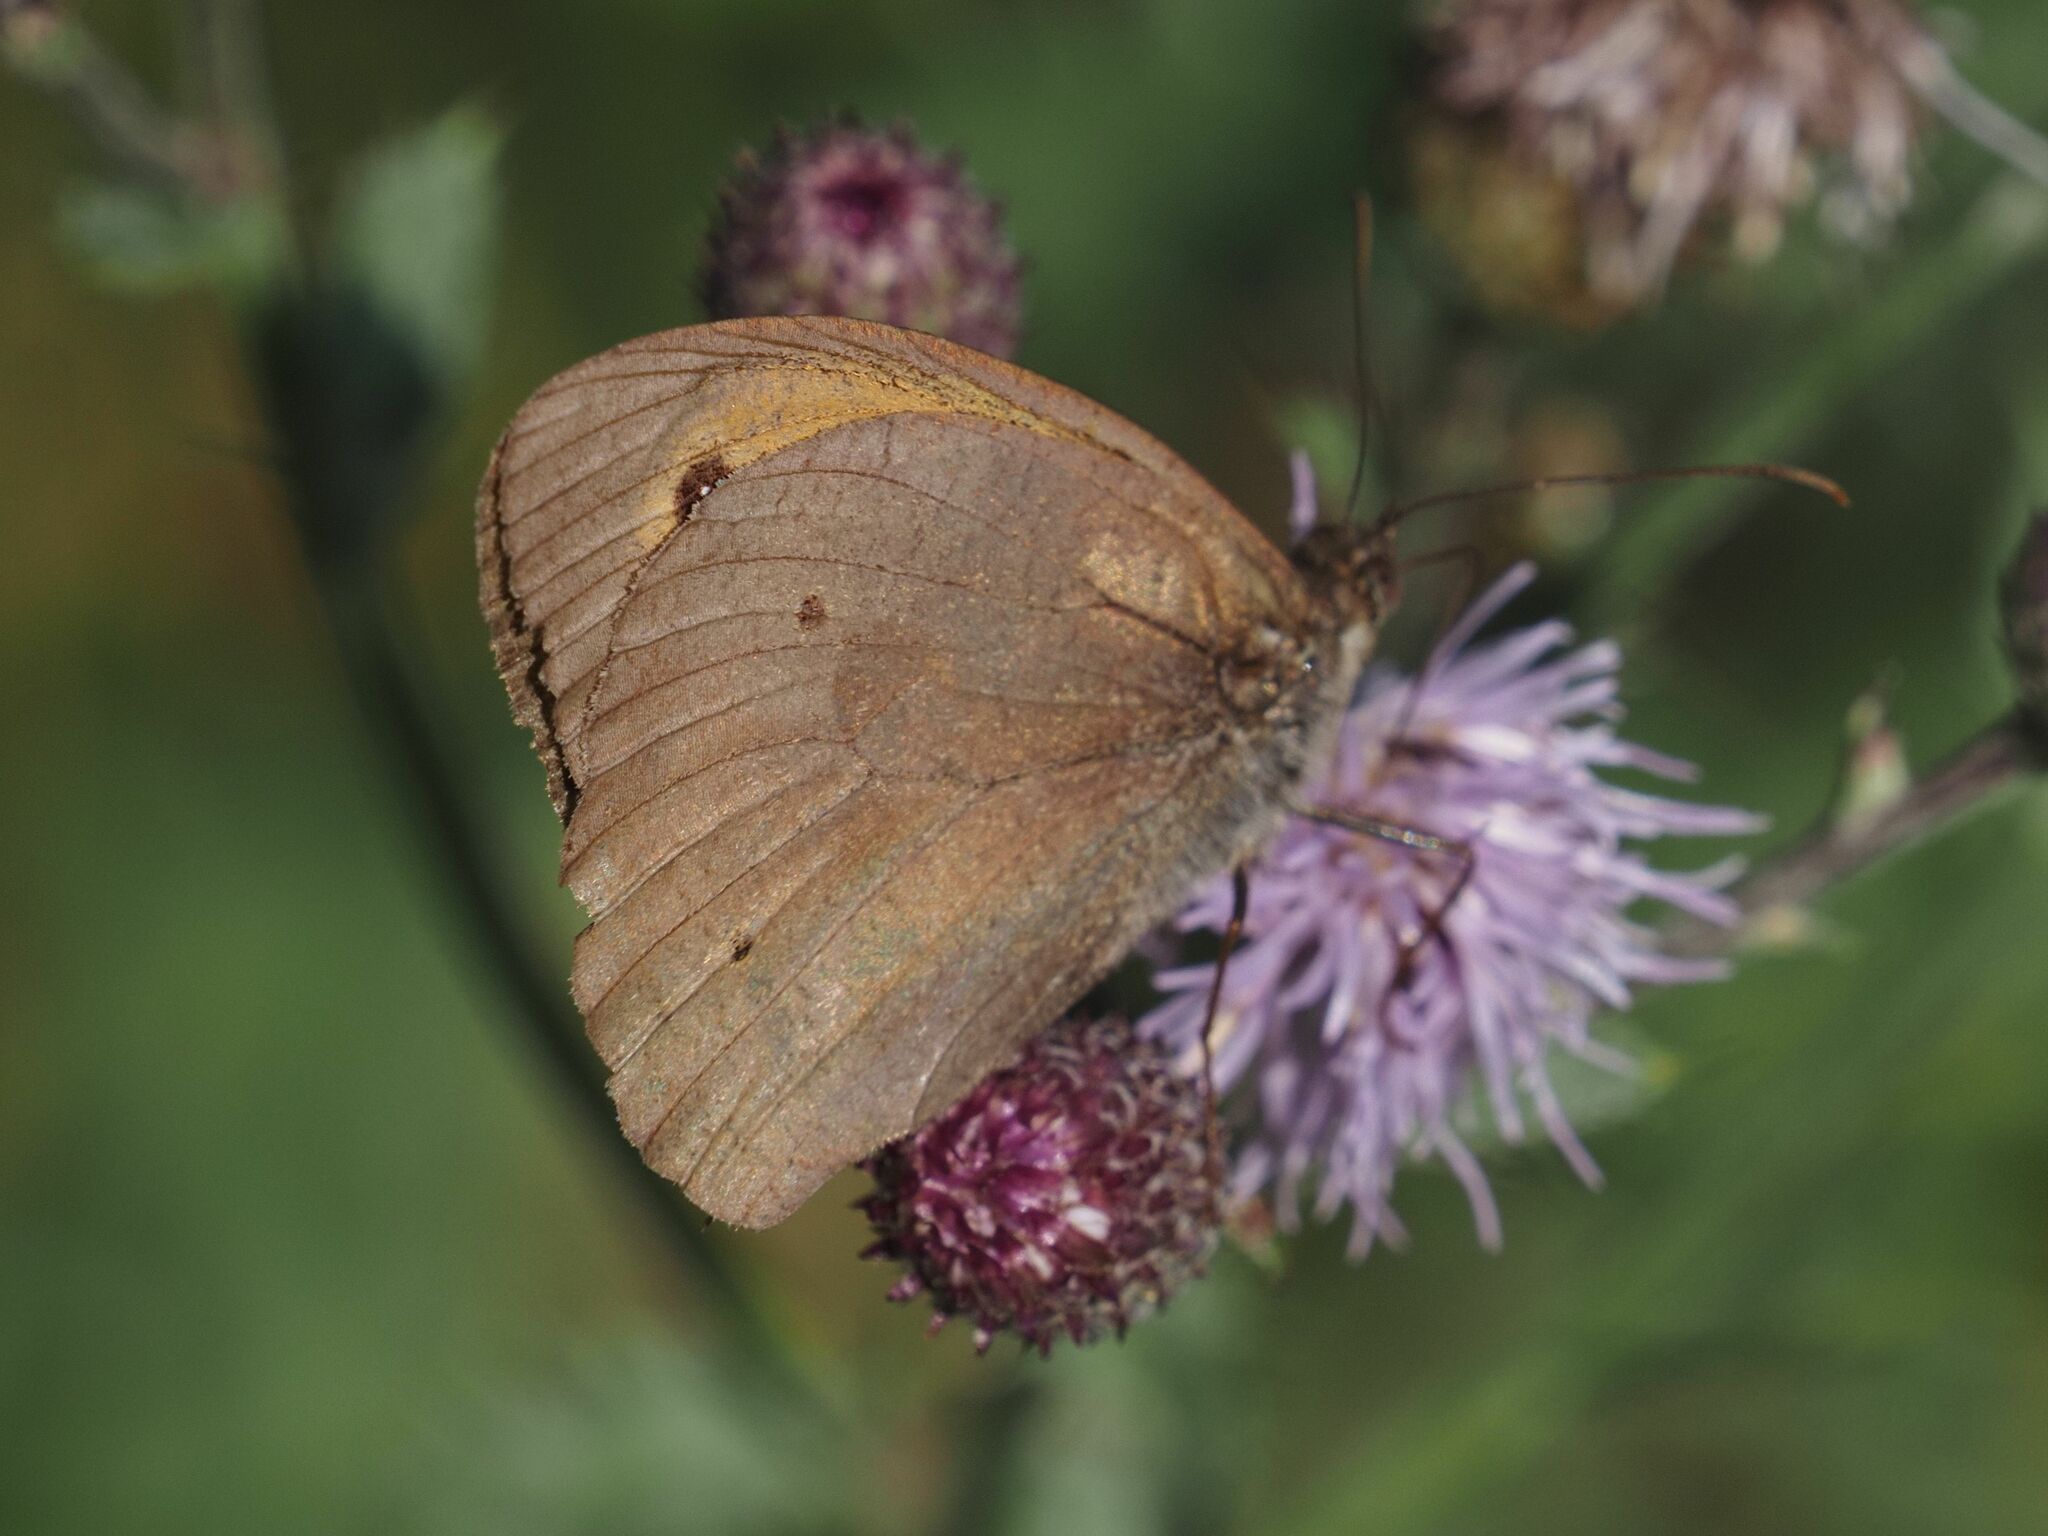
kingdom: Animalia
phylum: Arthropoda
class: Insecta
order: Lepidoptera
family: Nymphalidae
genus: Maniola
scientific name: Maniola jurtina
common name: Meadow brown
